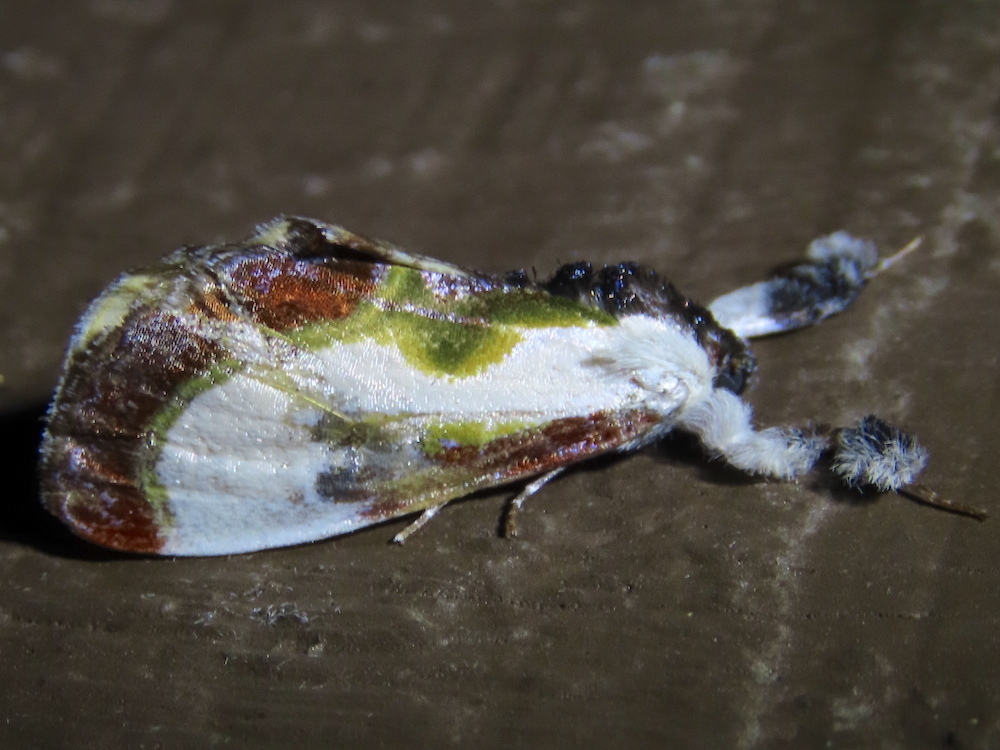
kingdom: Animalia
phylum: Arthropoda
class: Insecta
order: Lepidoptera
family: Noctuidae
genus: Eudryas
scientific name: Eudryas grata
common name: Beautiful wood-nymph
